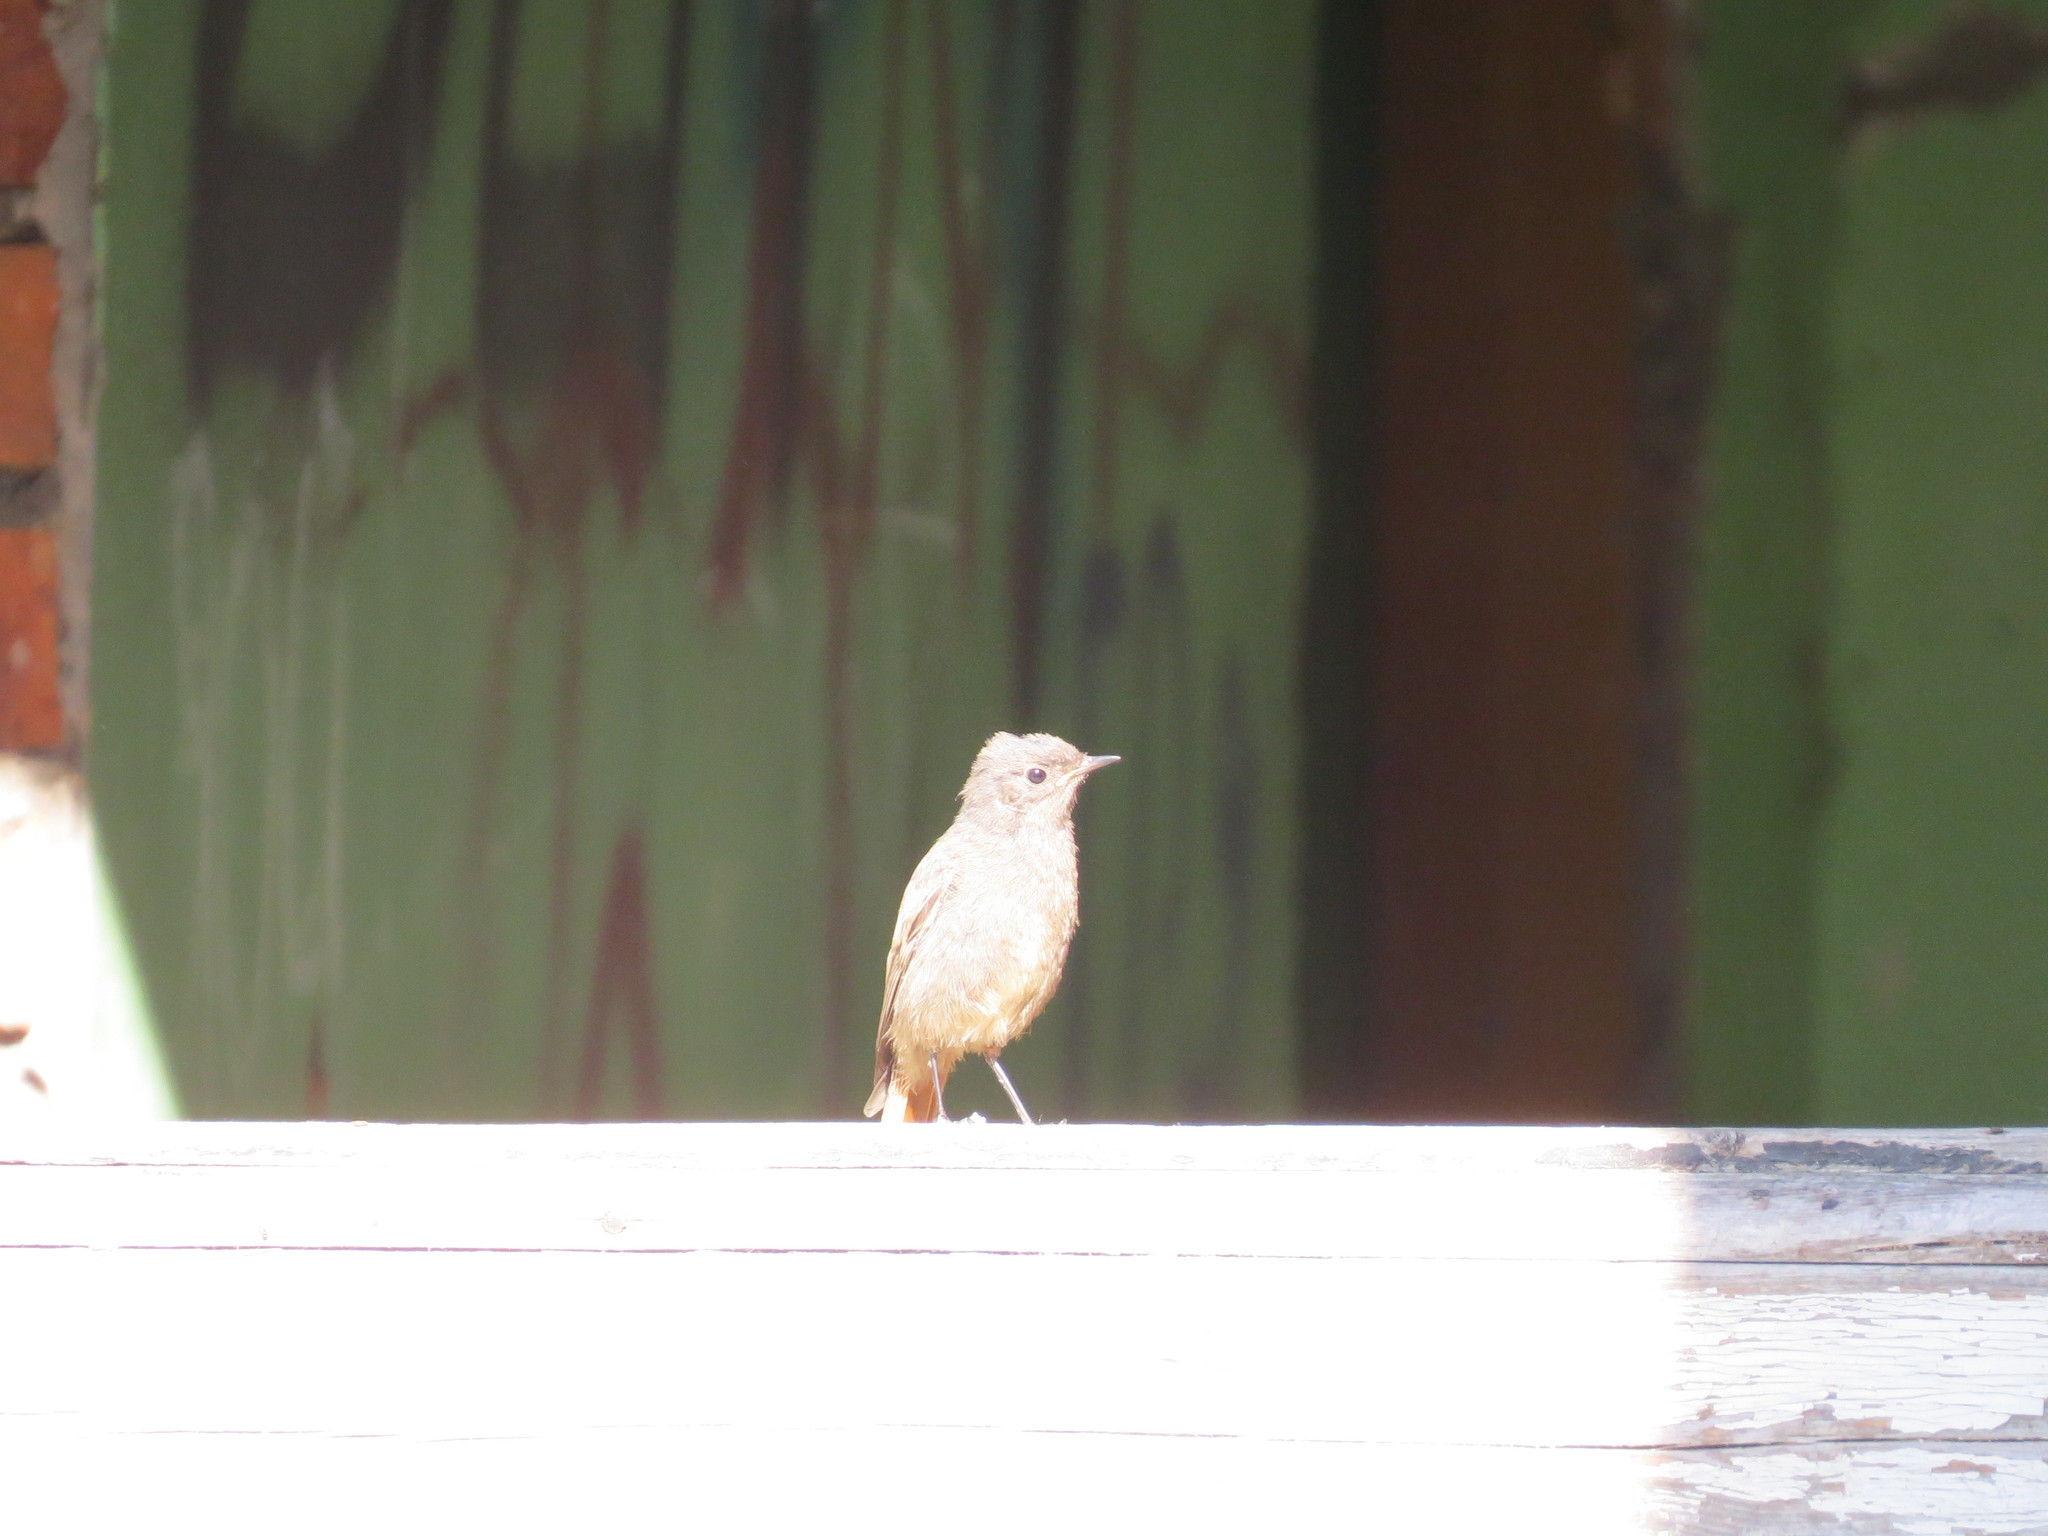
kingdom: Animalia
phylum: Chordata
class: Aves
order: Passeriformes
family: Muscicapidae
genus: Phoenicurus
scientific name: Phoenicurus phoenicurus
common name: Common redstart
